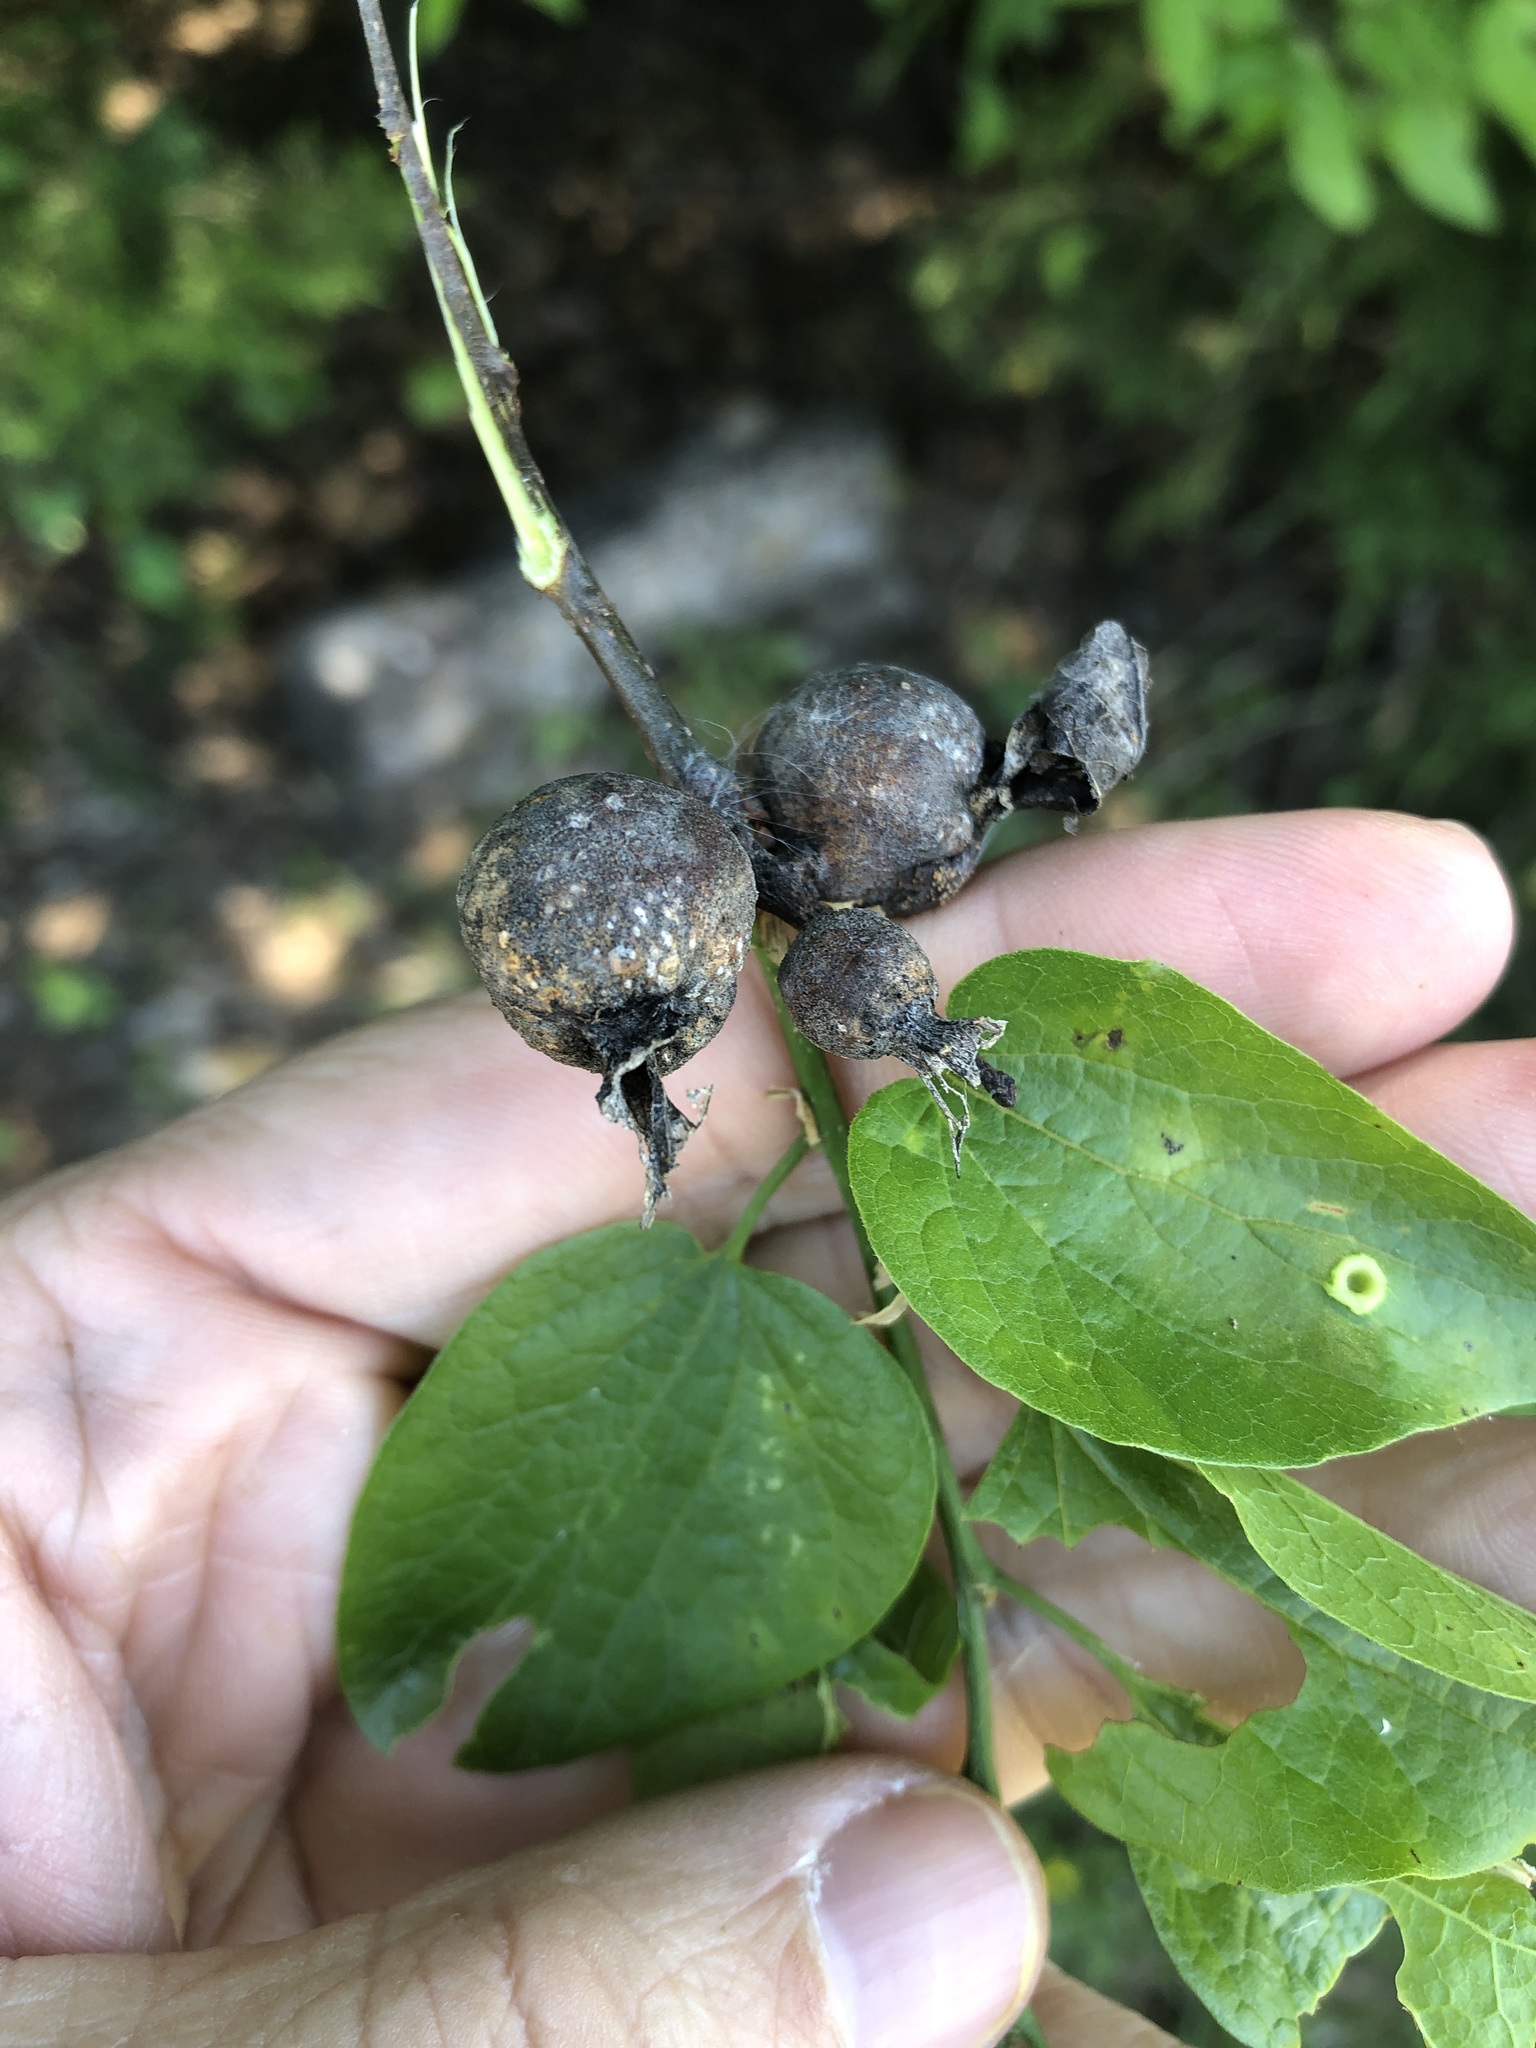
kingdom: Animalia
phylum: Arthropoda
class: Insecta
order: Hemiptera
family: Aphalaridae
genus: Pachypsylla
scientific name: Pachypsylla venusta
